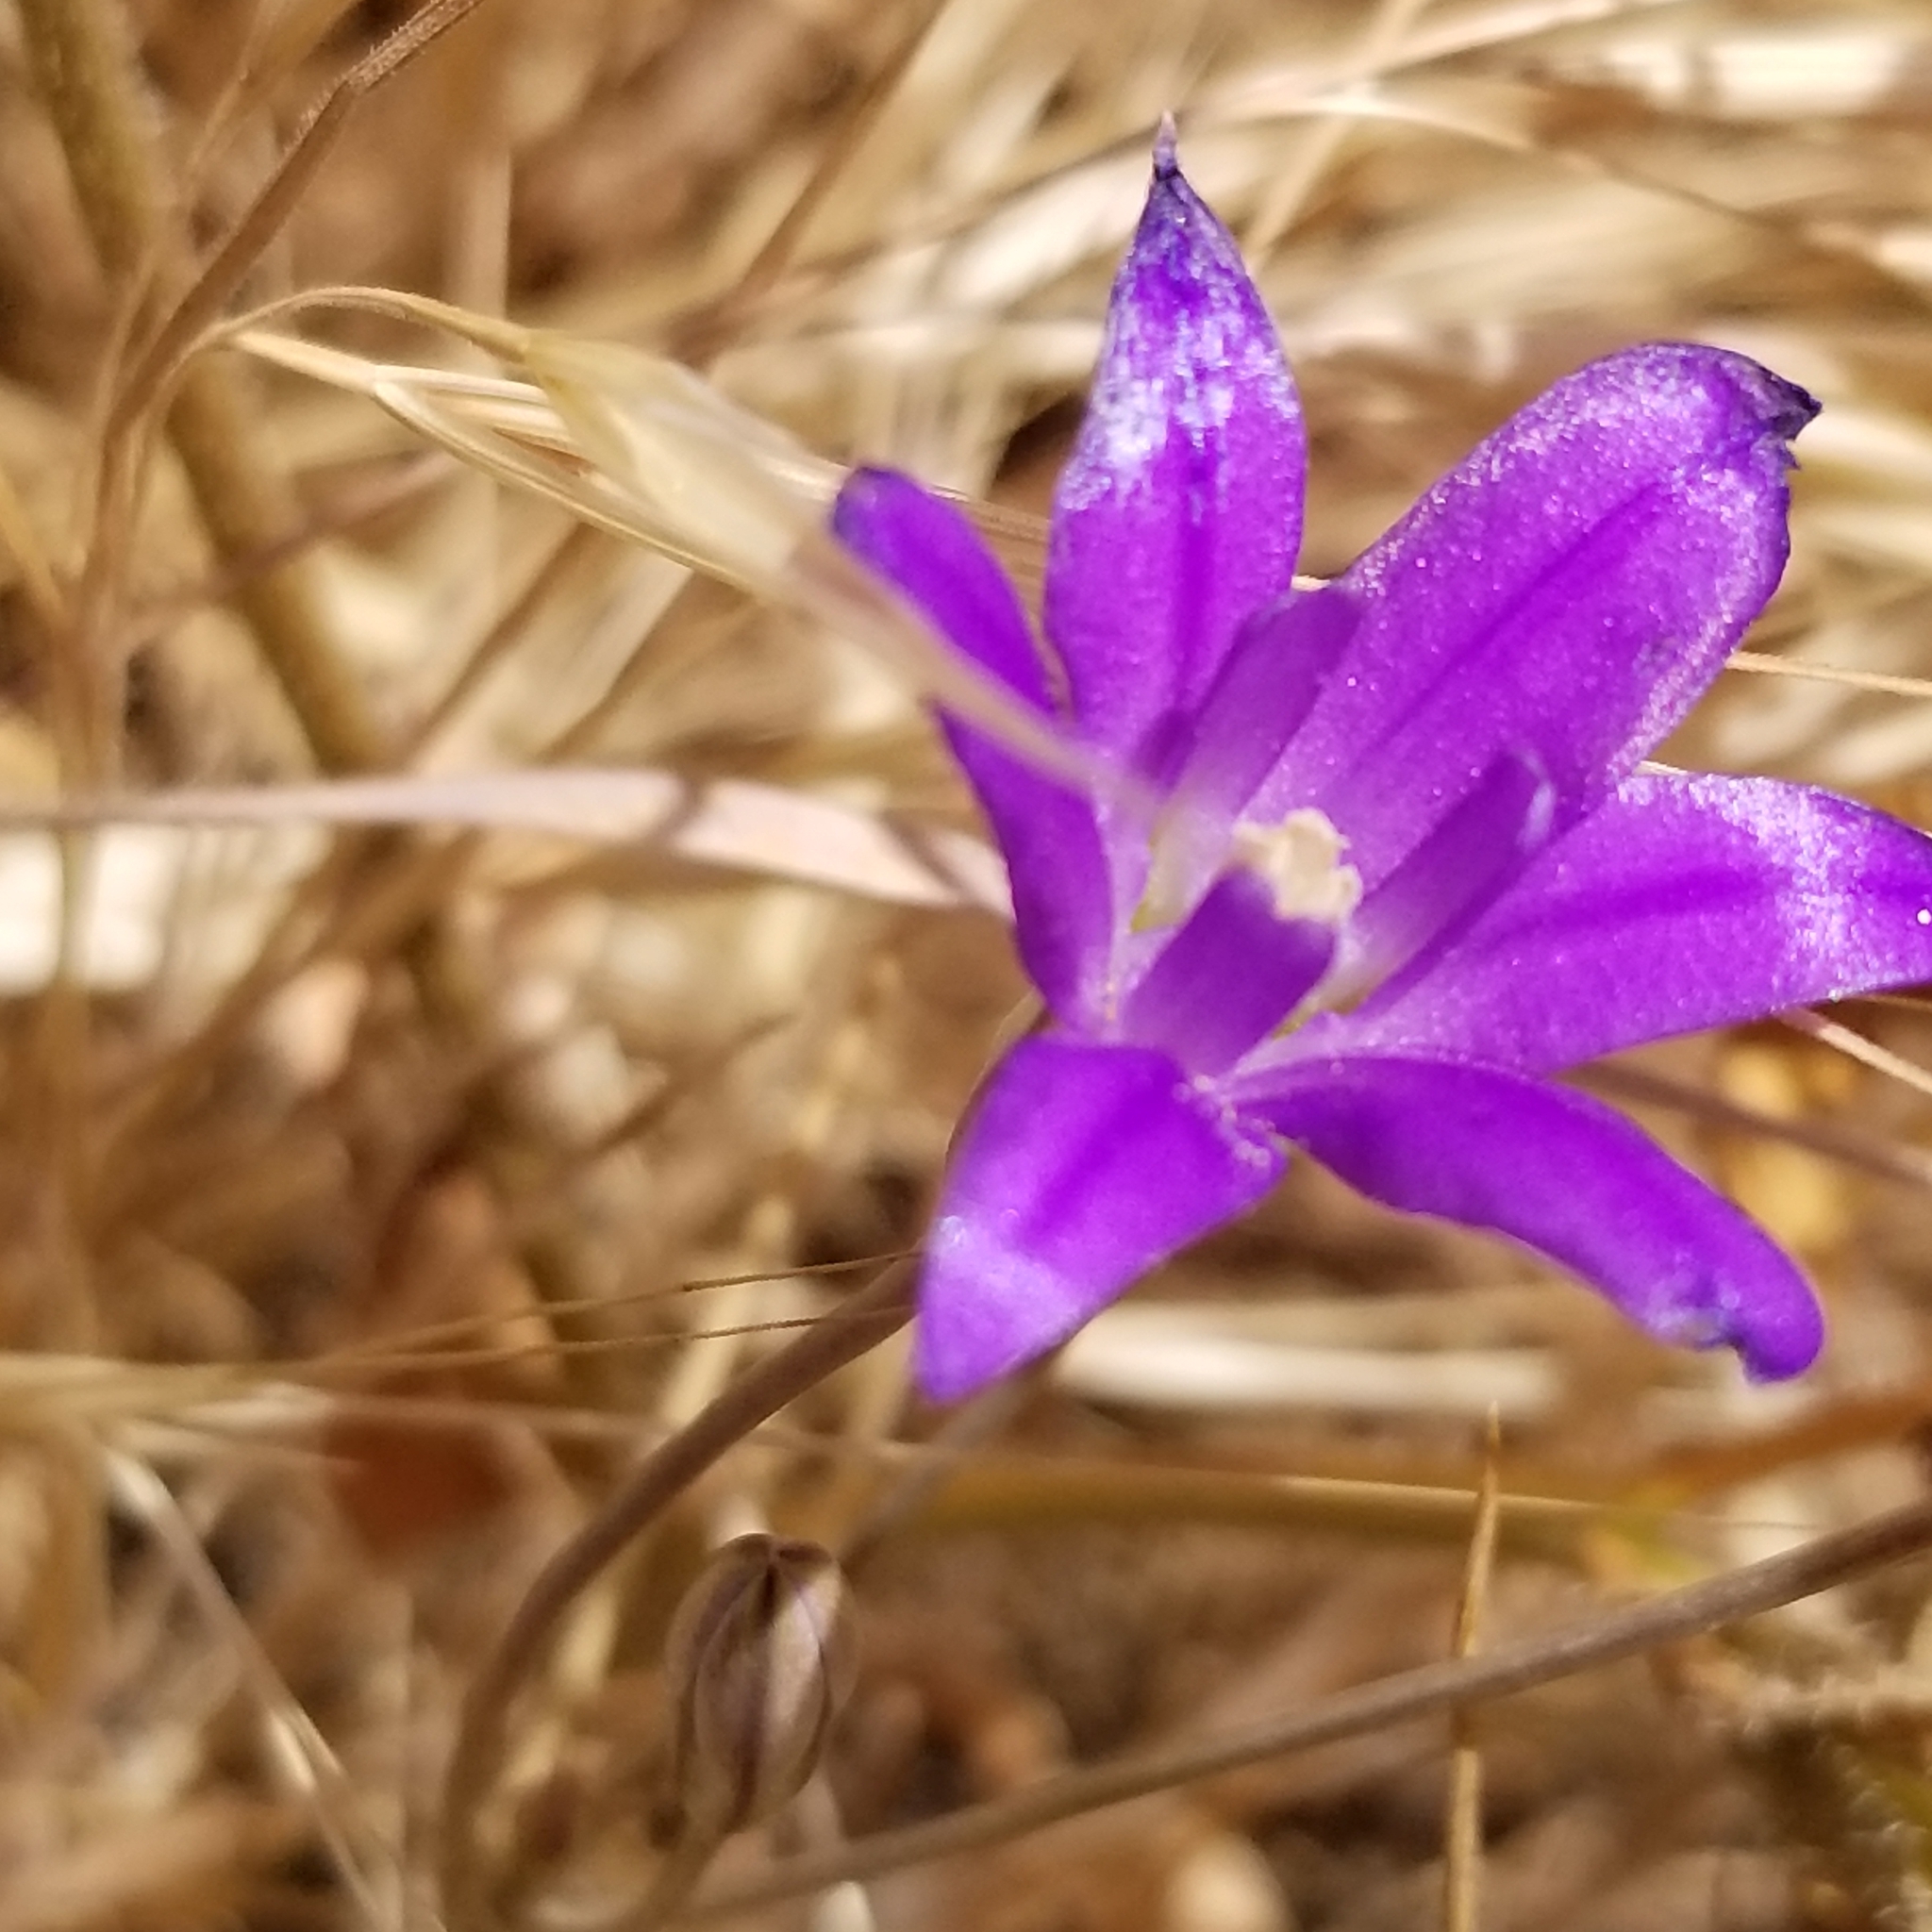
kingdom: Plantae
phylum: Tracheophyta
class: Liliopsida
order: Asparagales
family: Asparagaceae
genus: Brodiaea
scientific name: Brodiaea terrestris
